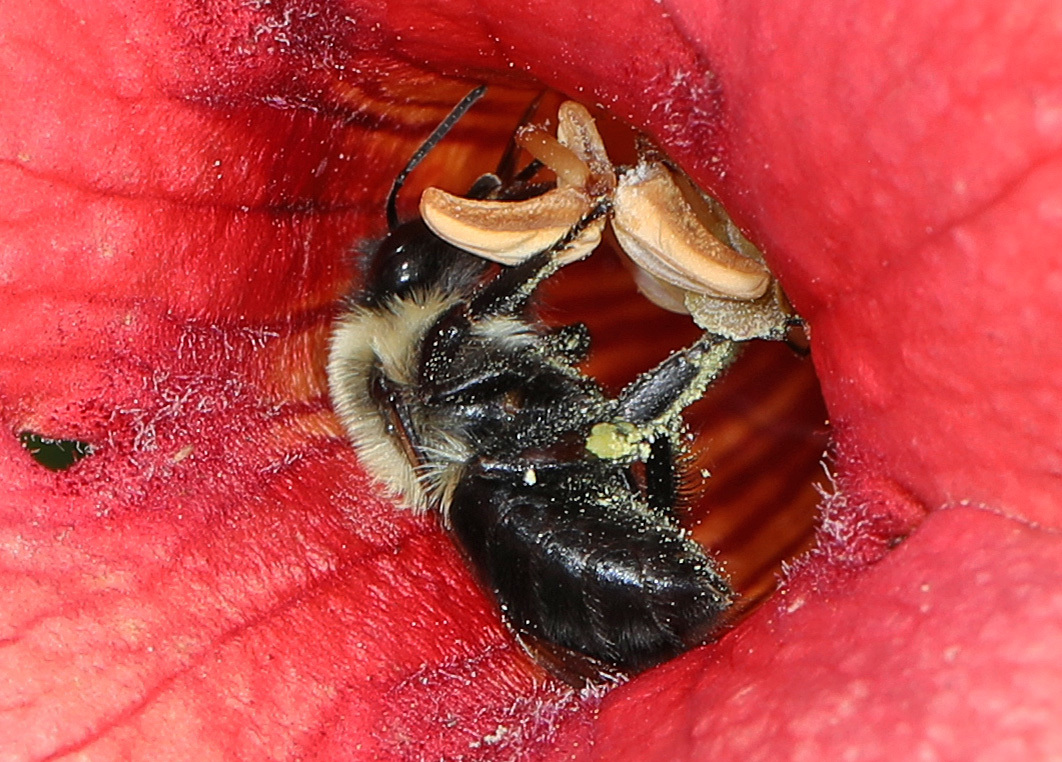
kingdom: Animalia
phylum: Arthropoda
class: Insecta
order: Hymenoptera
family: Apidae
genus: Bombus
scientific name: Bombus impatiens
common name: Common eastern bumble bee
